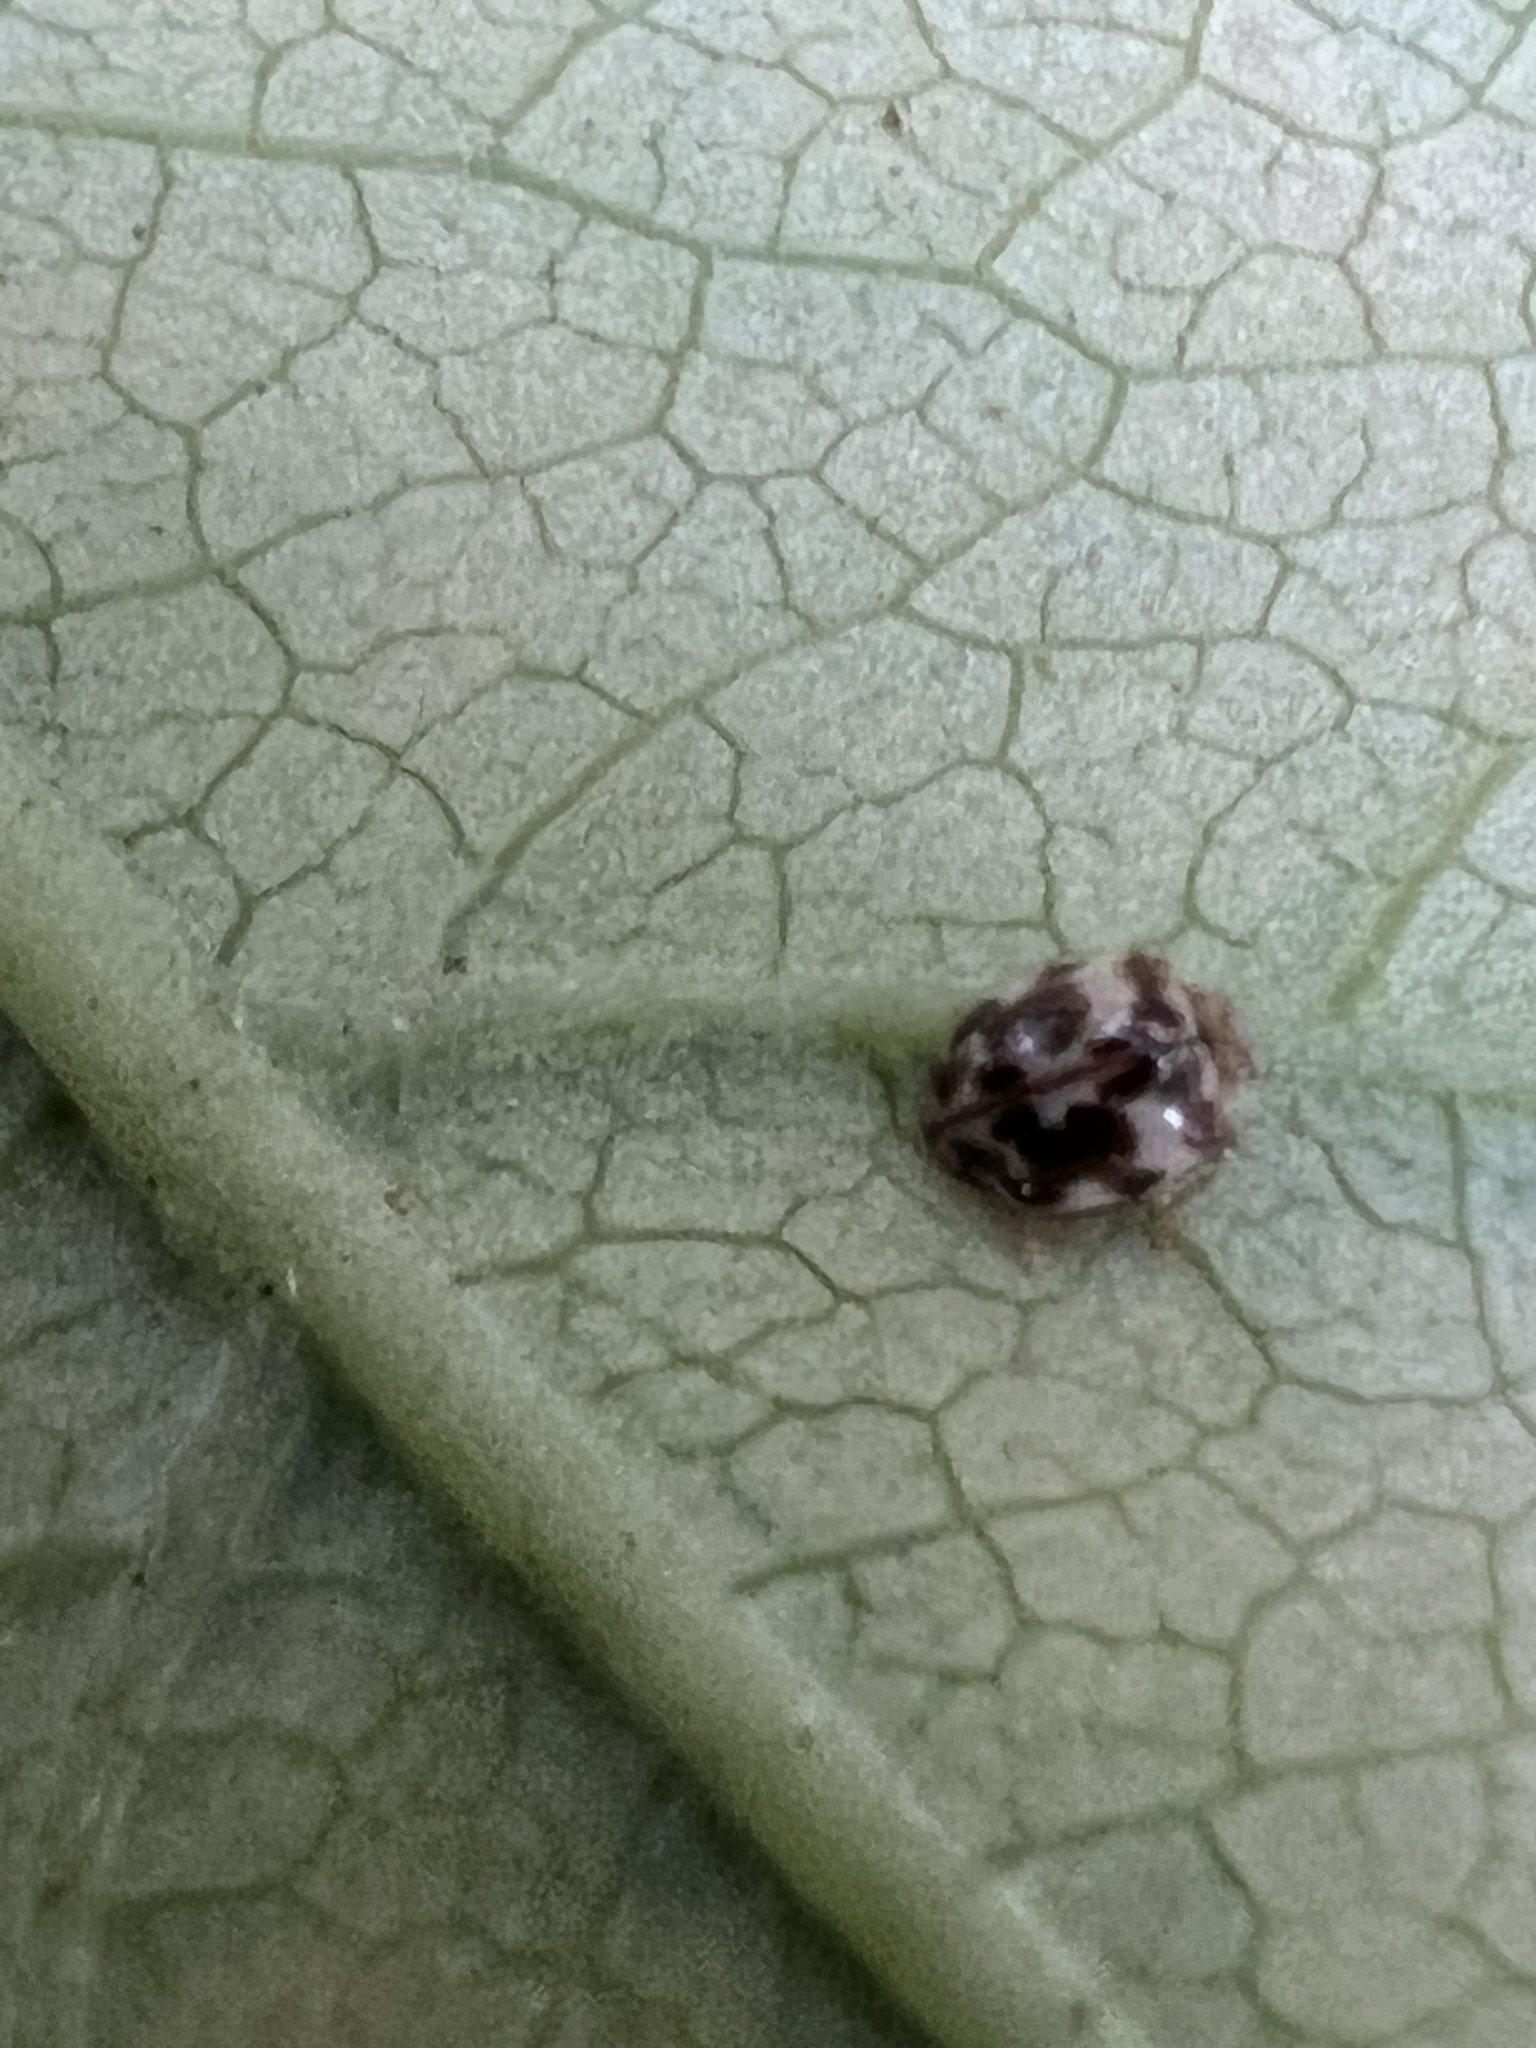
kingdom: Animalia
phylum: Arthropoda
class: Insecta
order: Coleoptera
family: Coccinellidae
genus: Psyllobora
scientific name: Psyllobora vigintimaculata
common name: Ladybird beetle
